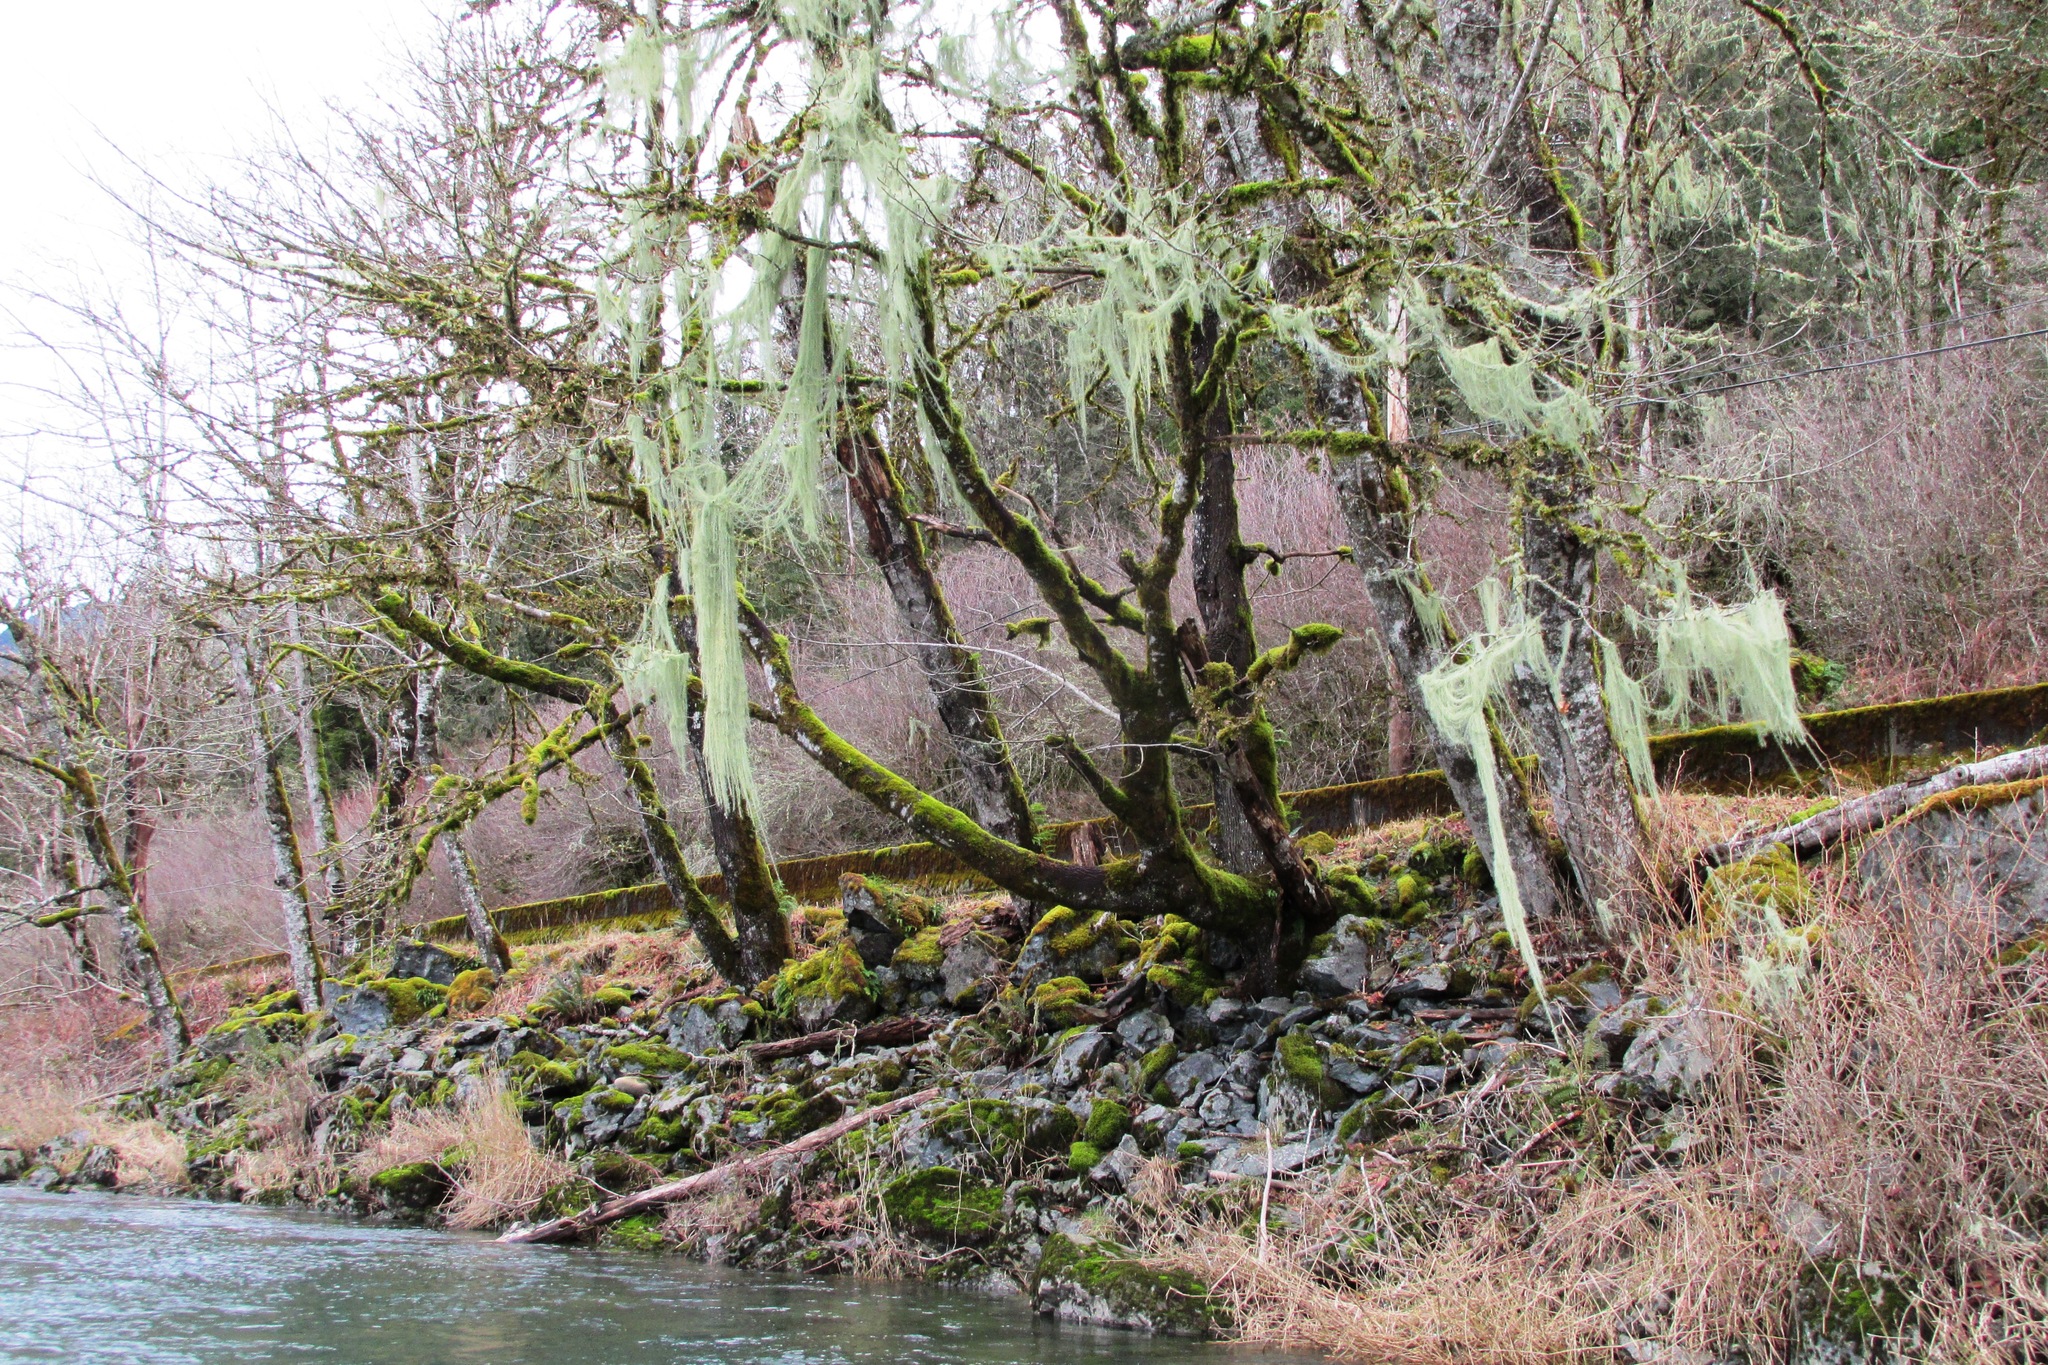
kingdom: Fungi
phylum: Ascomycota
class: Lecanoromycetes
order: Lecanorales
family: Parmeliaceae
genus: Dolichousnea
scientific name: Dolichousnea longissima
